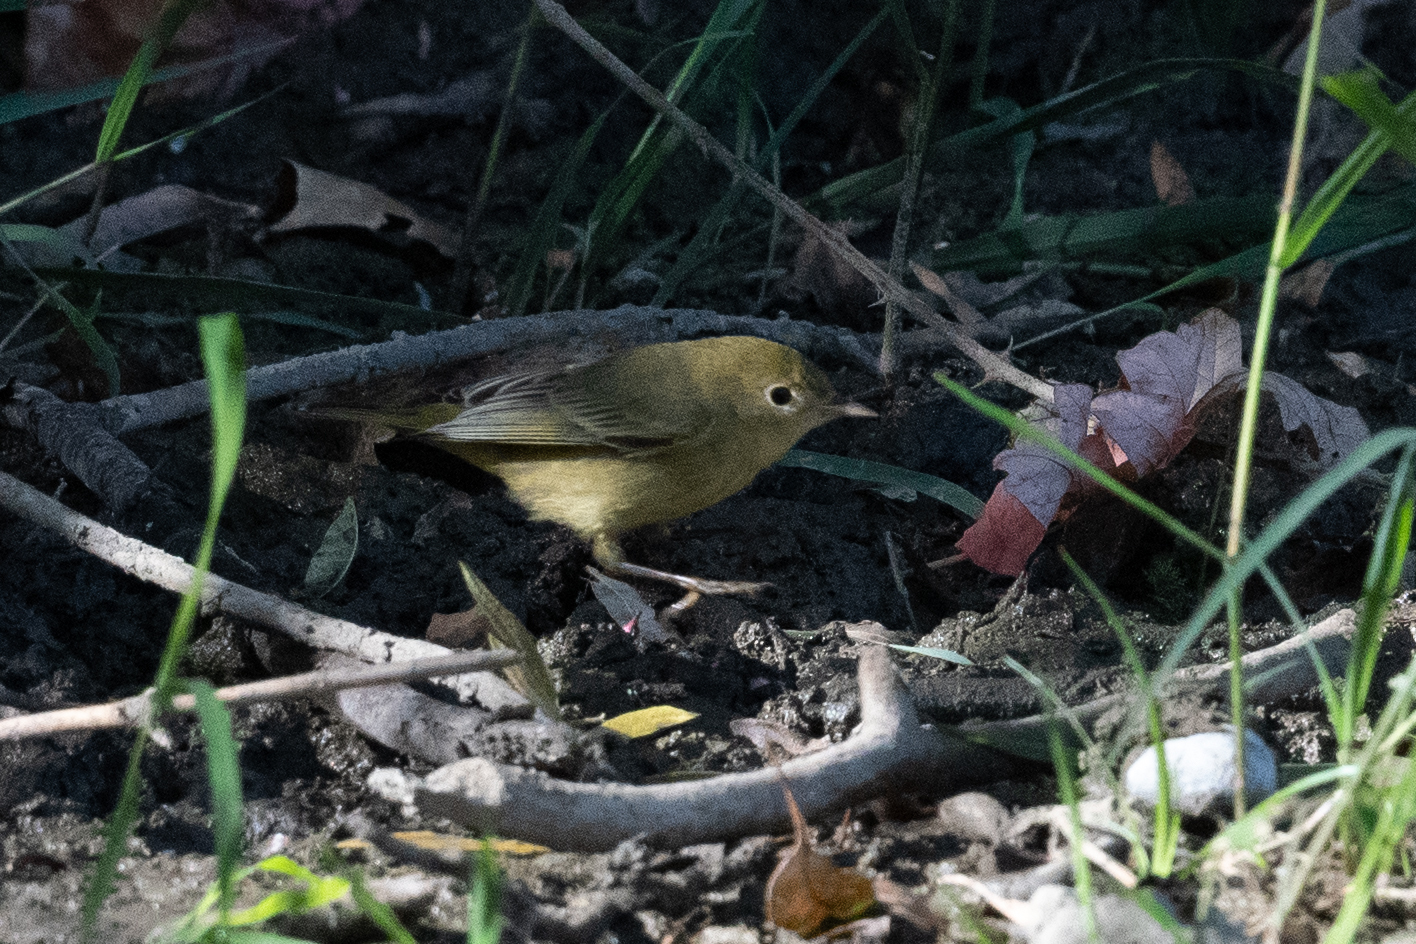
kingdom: Animalia
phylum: Chordata
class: Aves
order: Passeriformes
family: Parulidae
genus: Setophaga
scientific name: Setophaga petechia
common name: Yellow warbler
